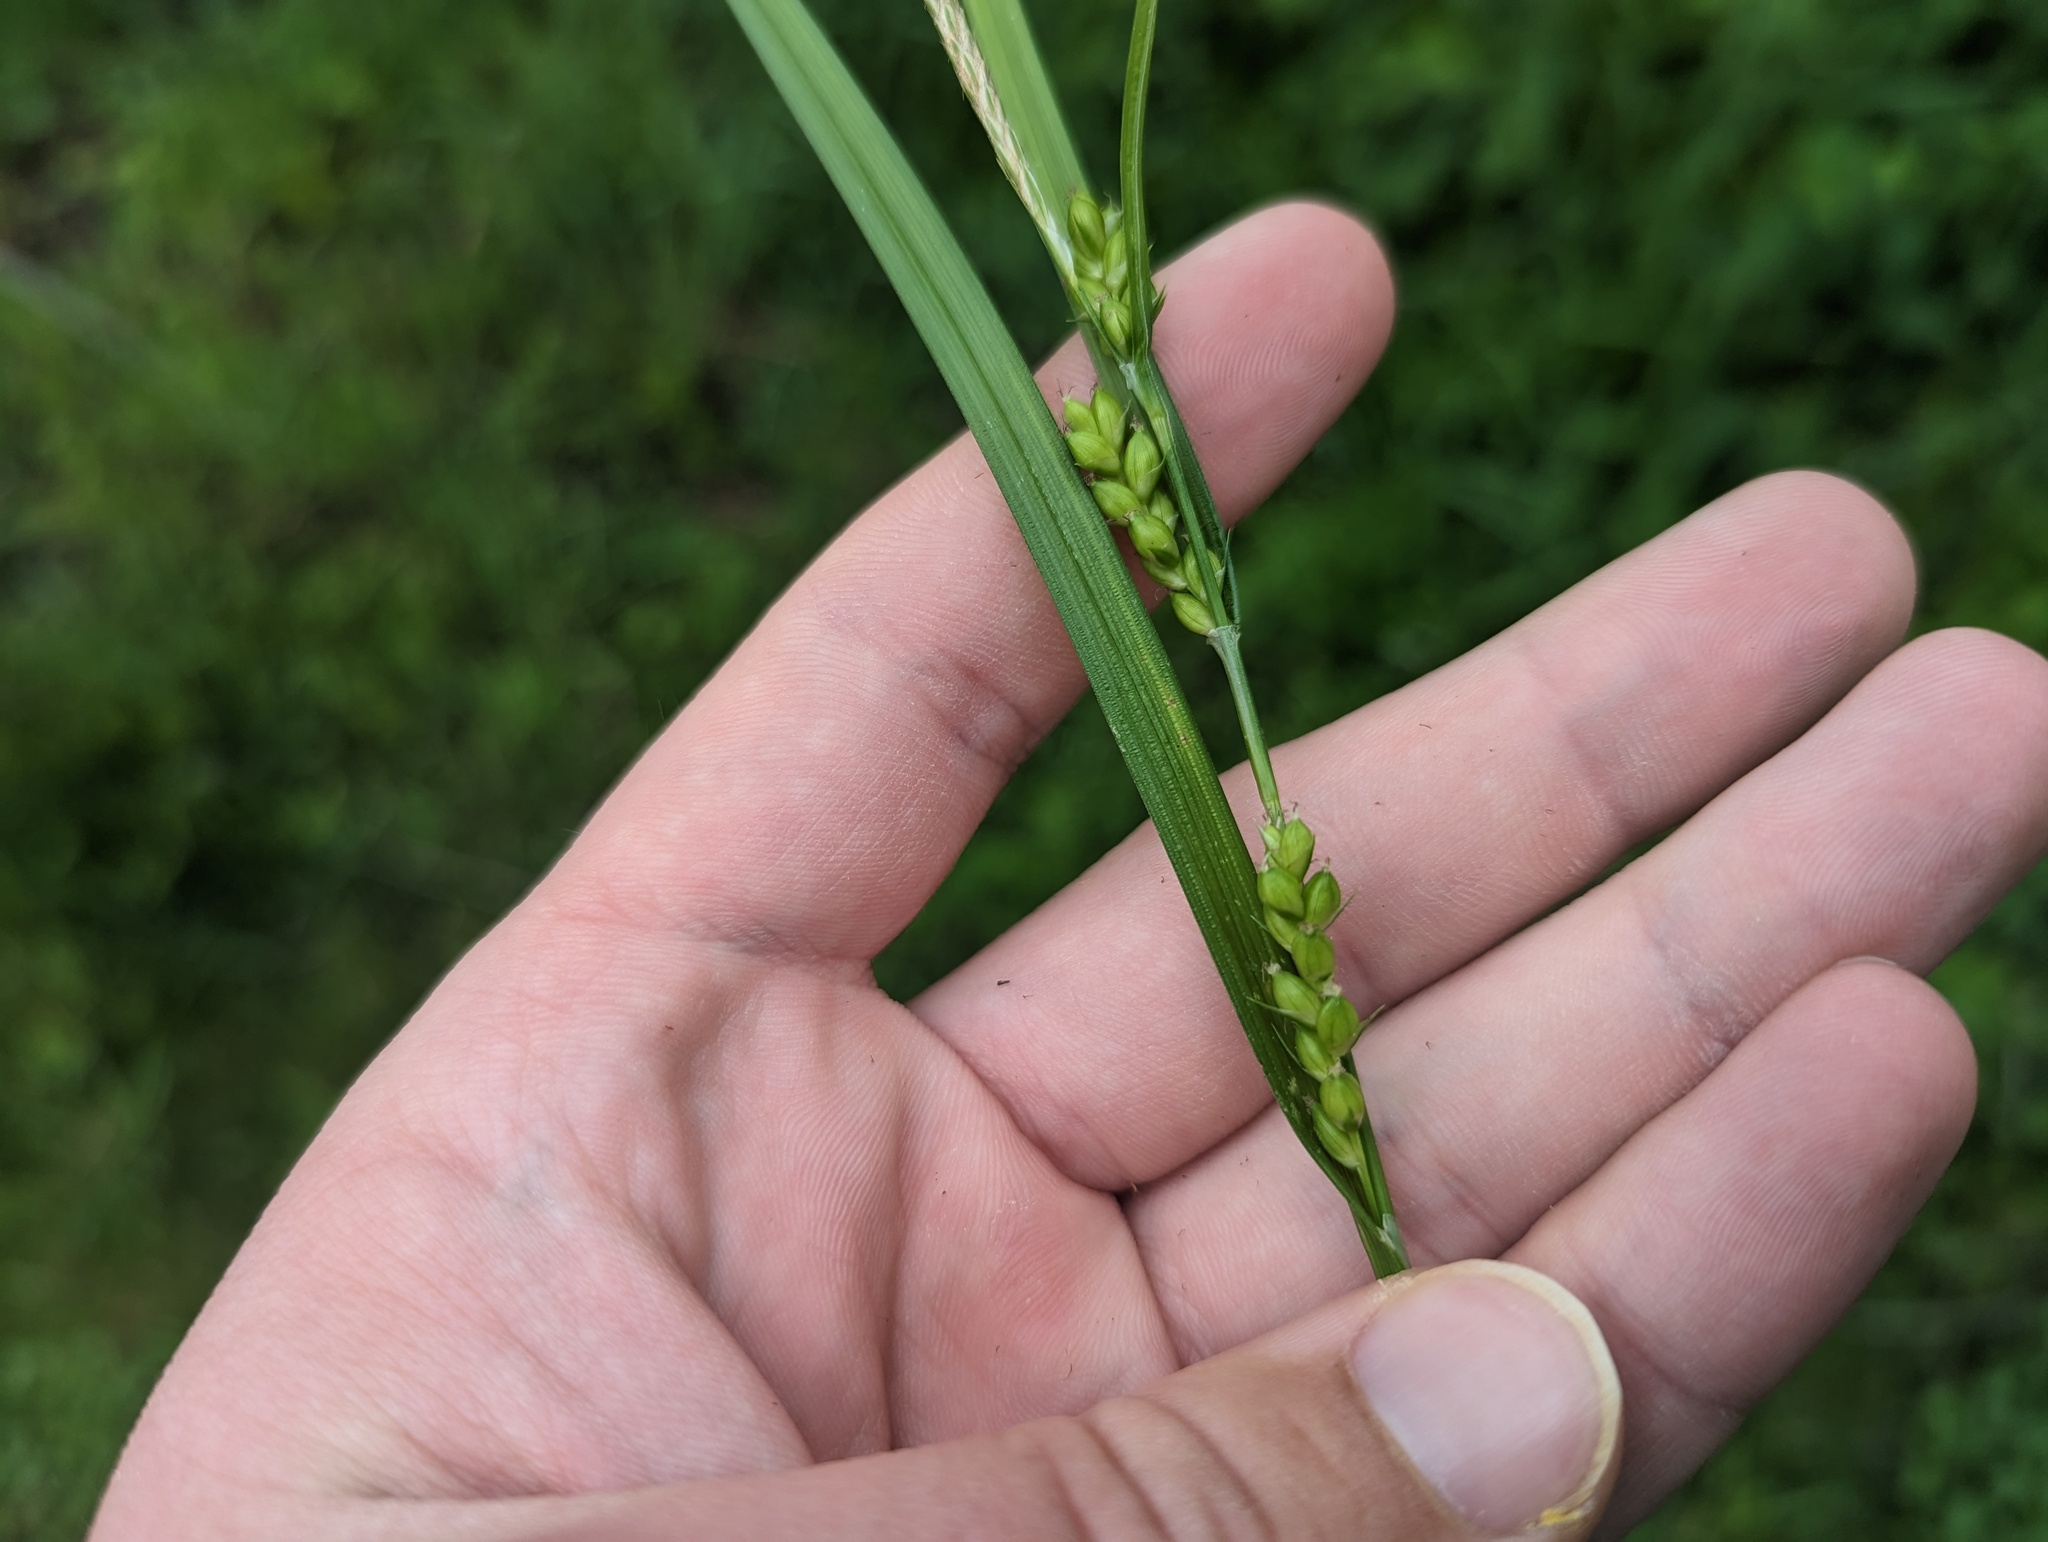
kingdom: Plantae
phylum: Tracheophyta
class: Liliopsida
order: Poales
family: Cyperaceae
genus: Carex
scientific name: Carex grisea
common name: Eastern narrow-leaved sedge
